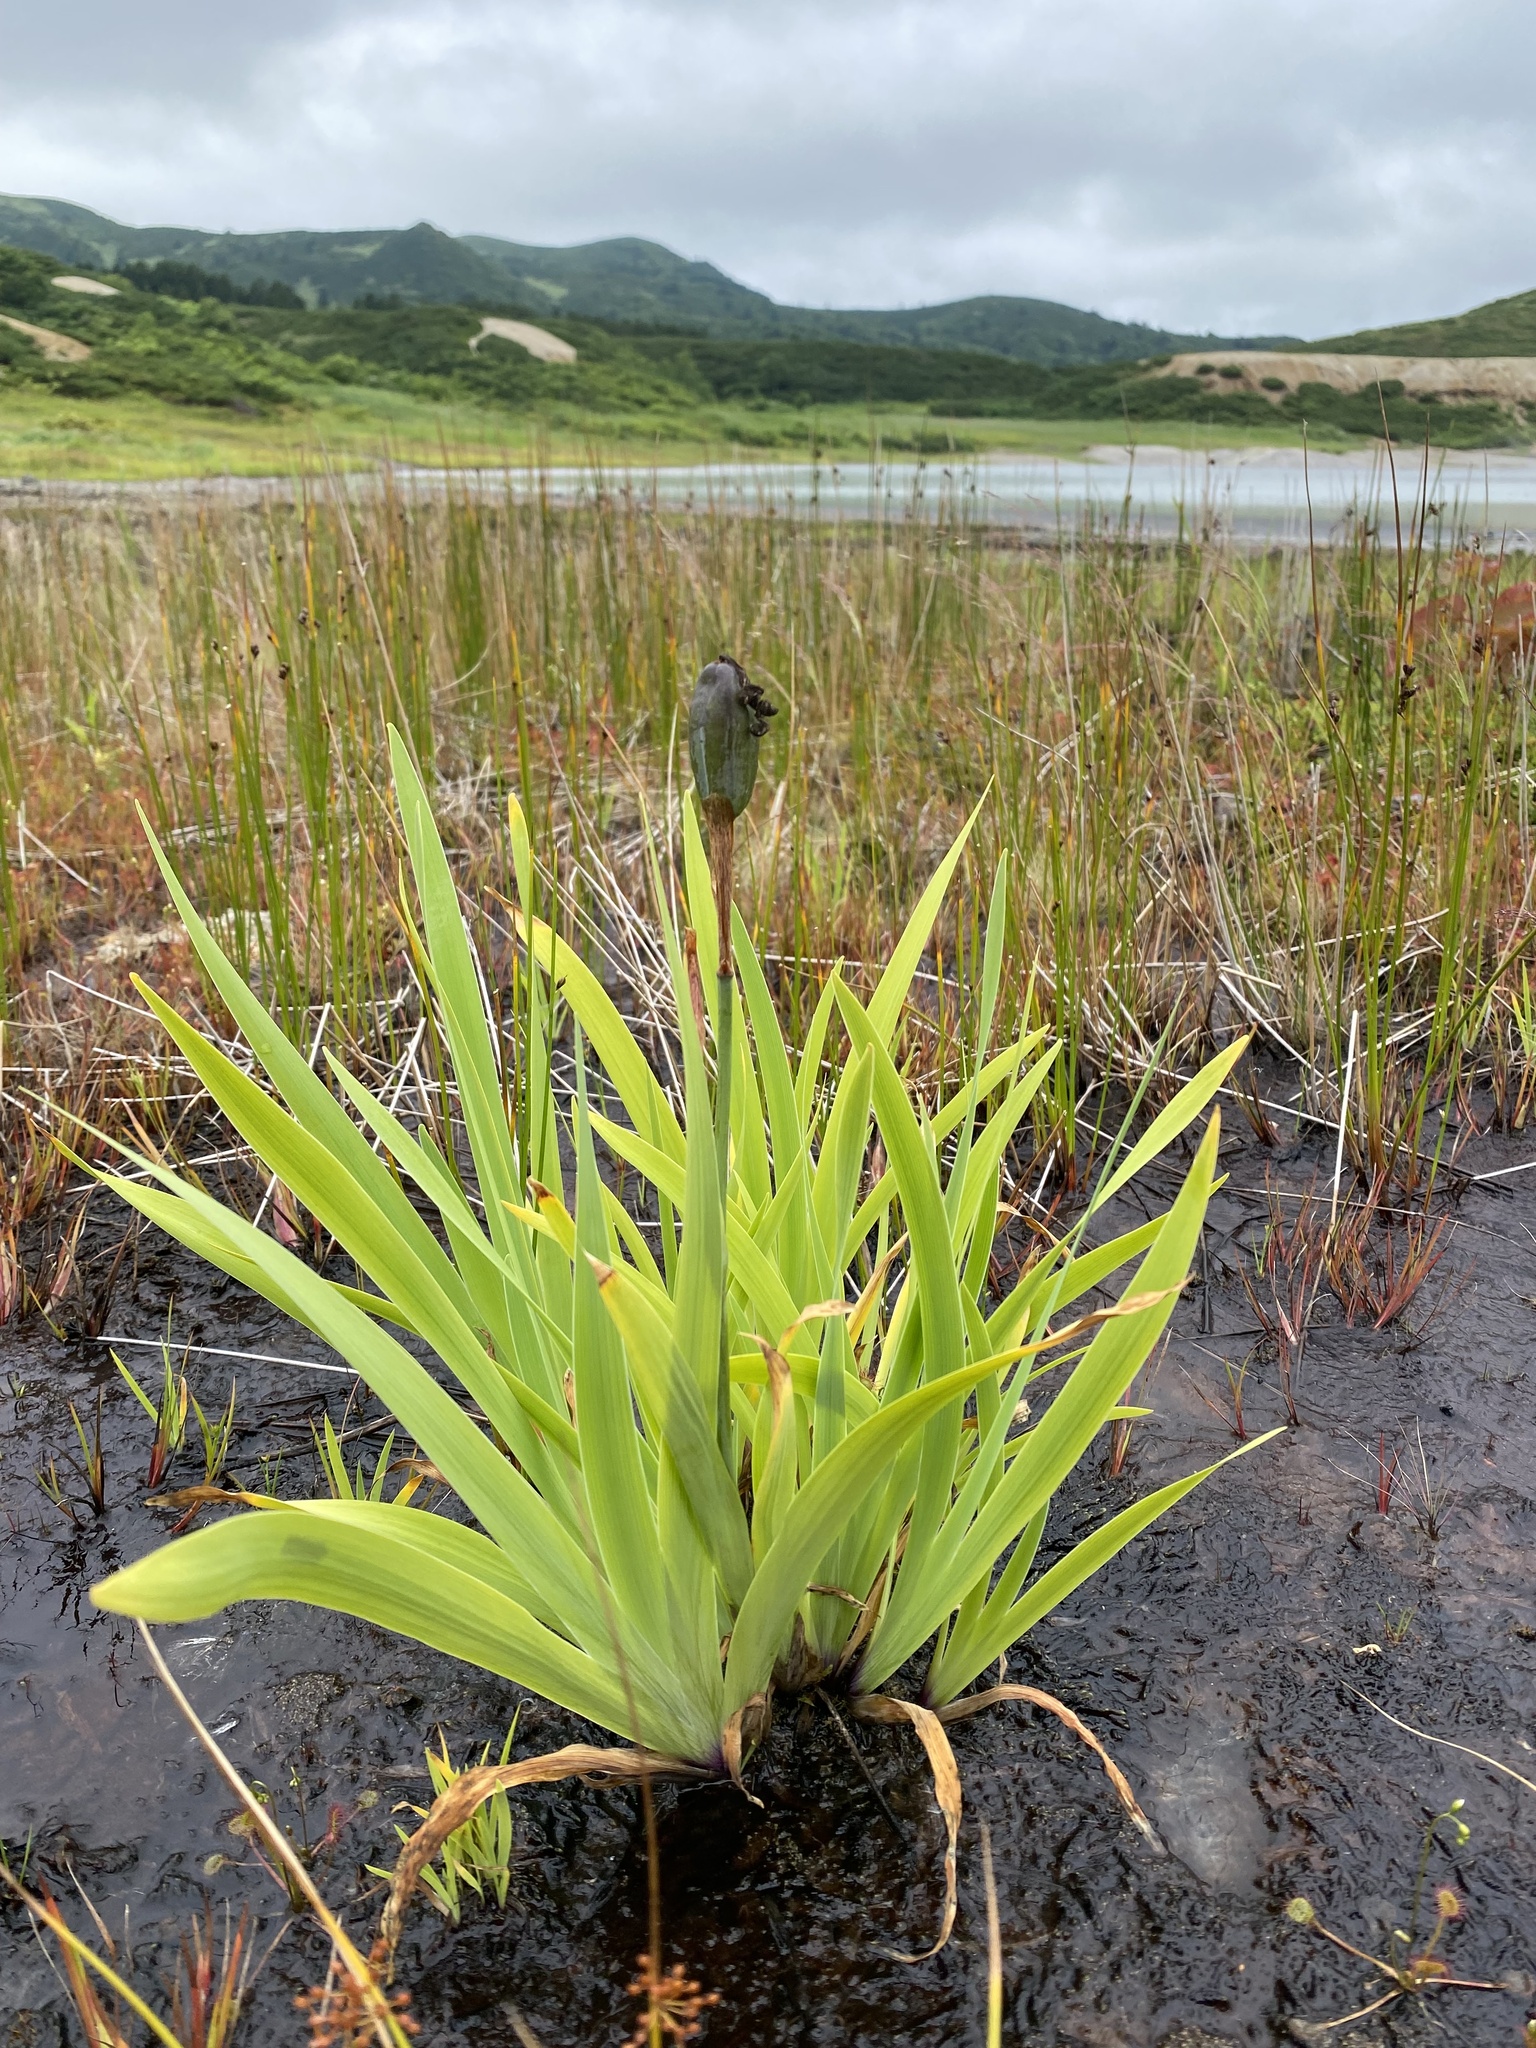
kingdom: Plantae
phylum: Tracheophyta
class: Liliopsida
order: Asparagales
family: Iridaceae
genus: Iris
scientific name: Iris setosa
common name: Arctic blue flag
